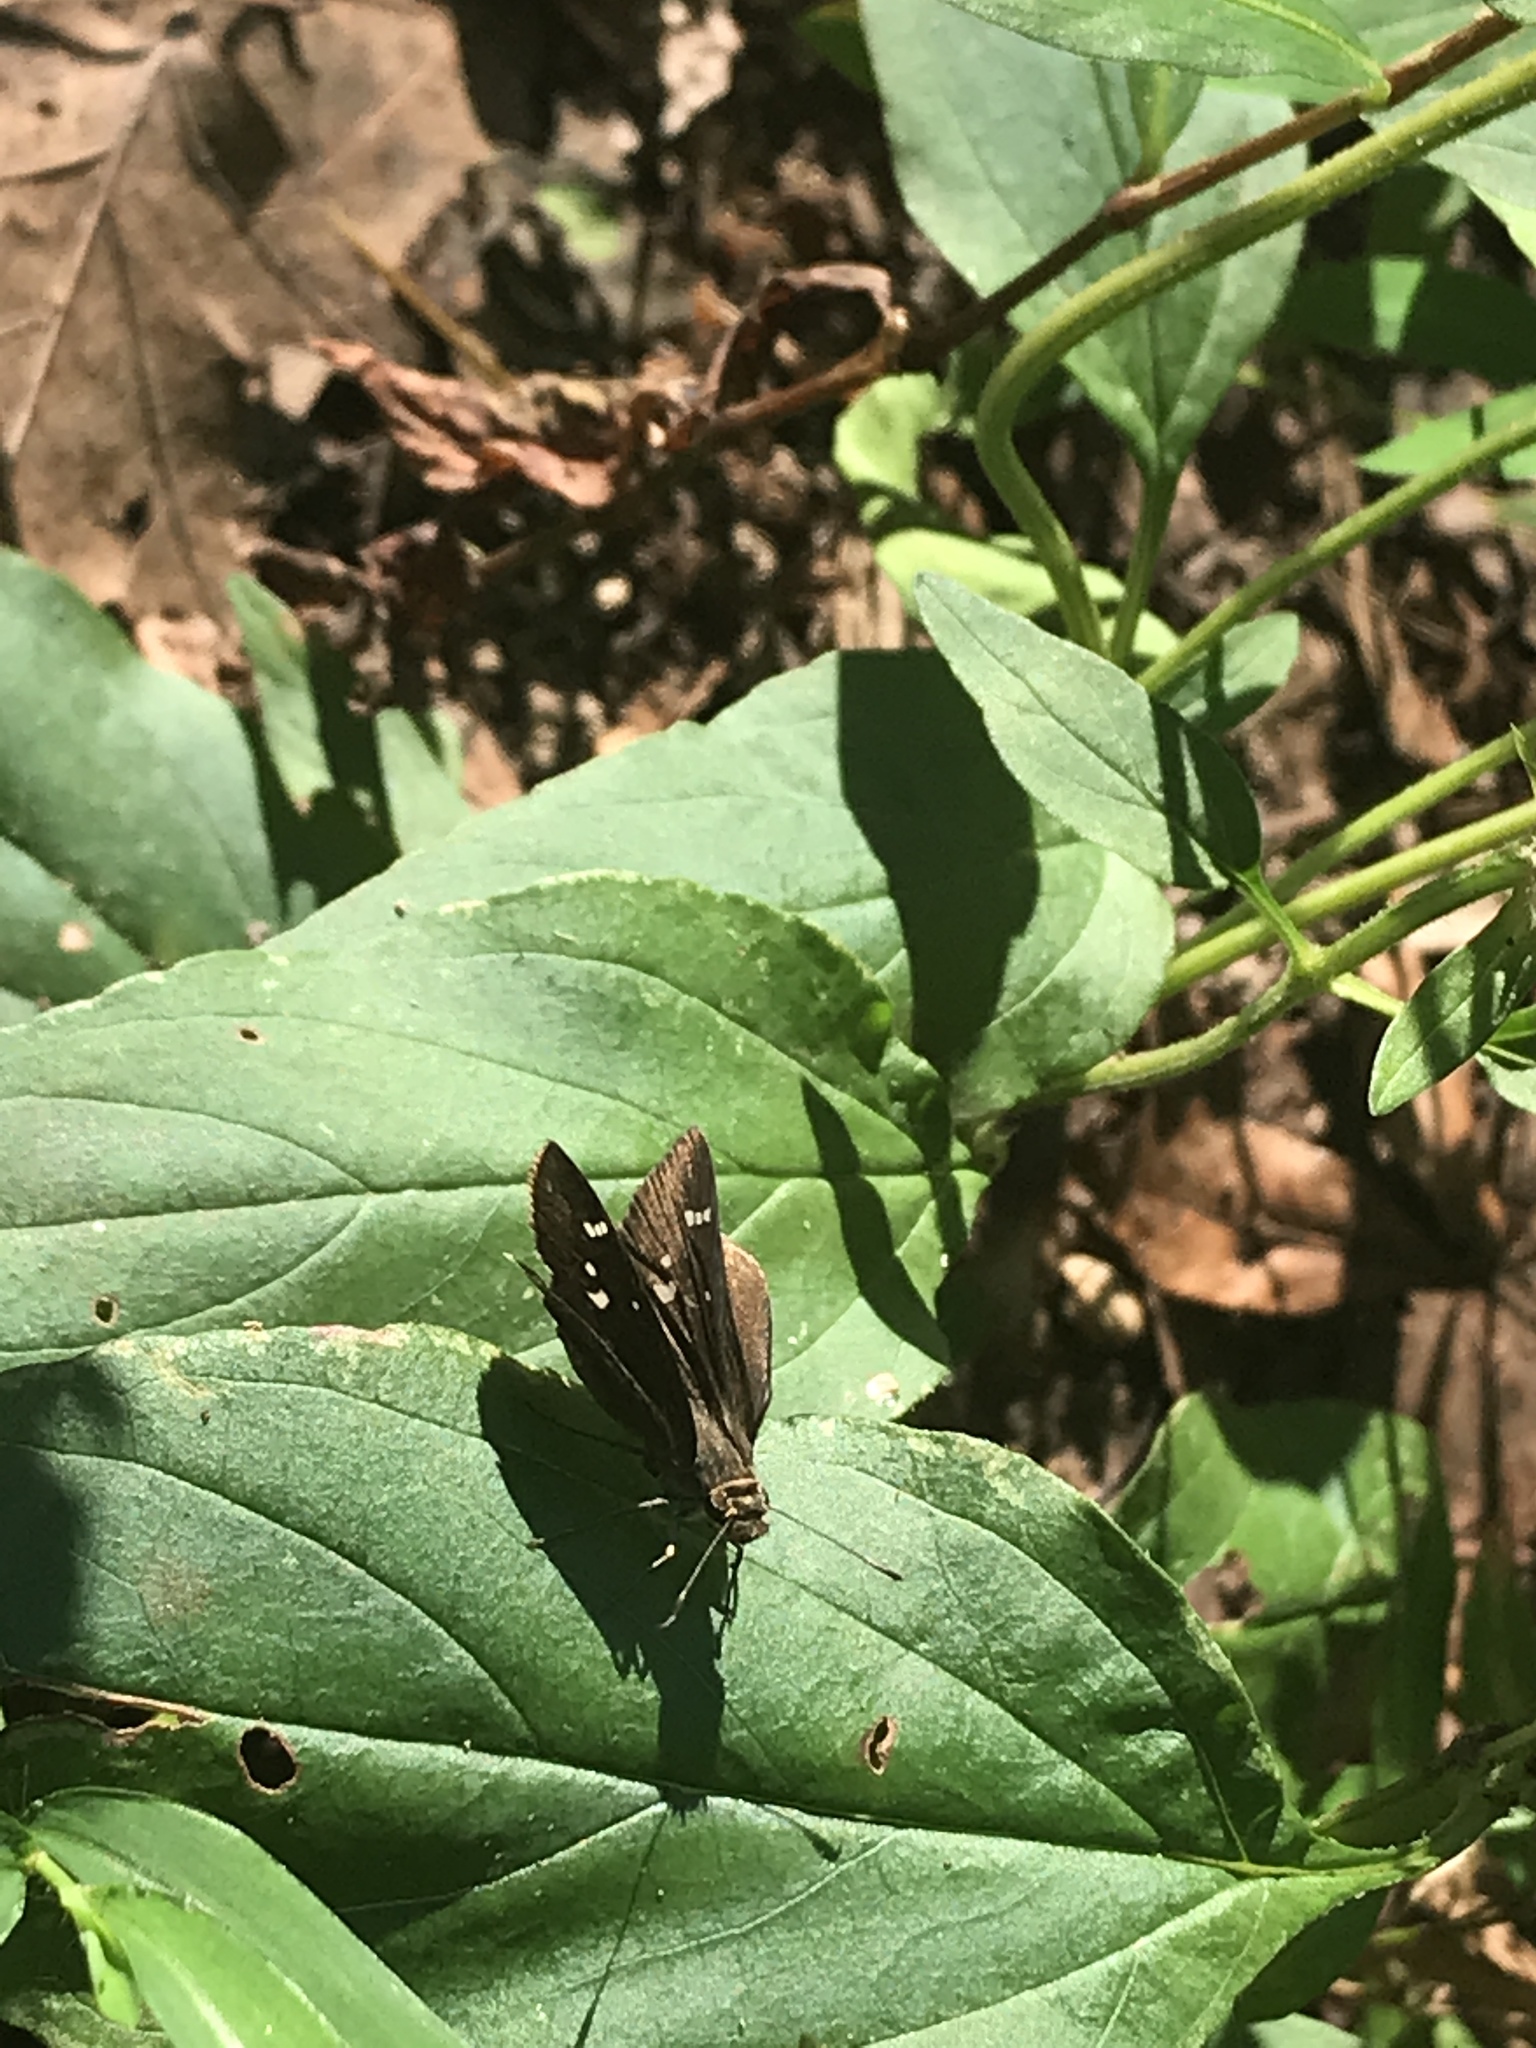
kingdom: Animalia
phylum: Arthropoda
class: Insecta
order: Lepidoptera
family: Hesperiidae
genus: Lerema
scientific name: Lerema accius
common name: Clouded skipper
